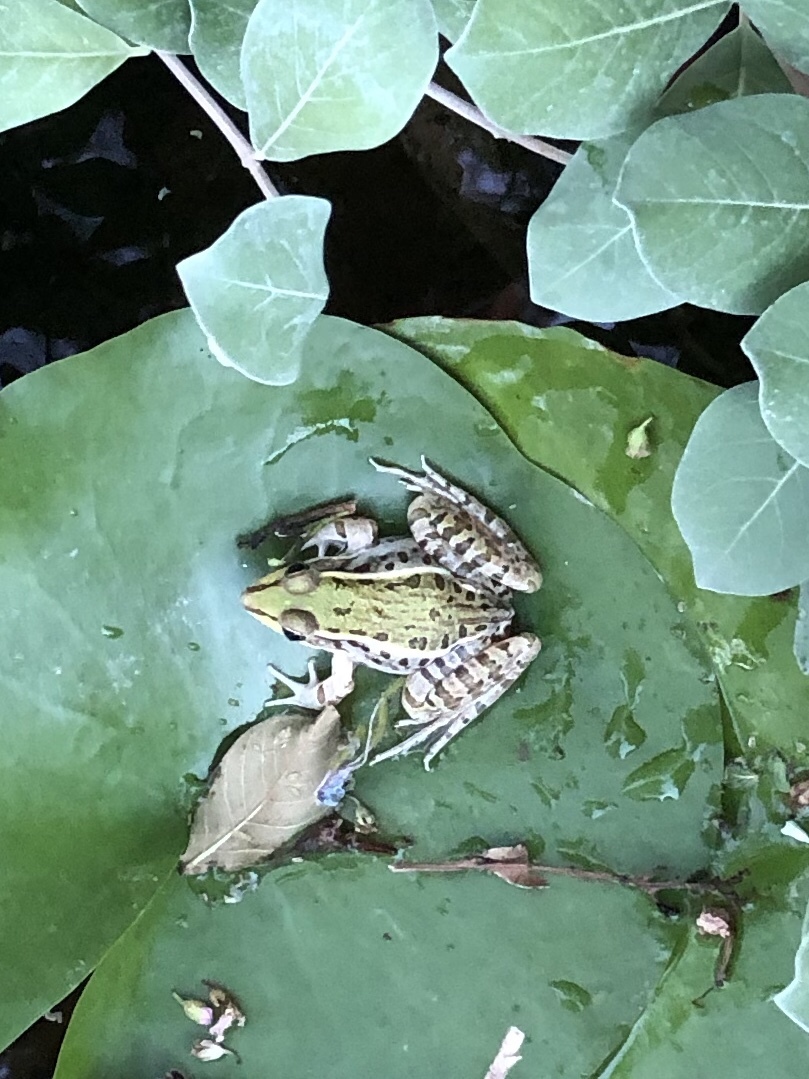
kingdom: Animalia
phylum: Chordata
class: Amphibia
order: Anura
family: Ranidae
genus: Lithobates
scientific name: Lithobates berlandieri
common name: Rio grande leopard frog
